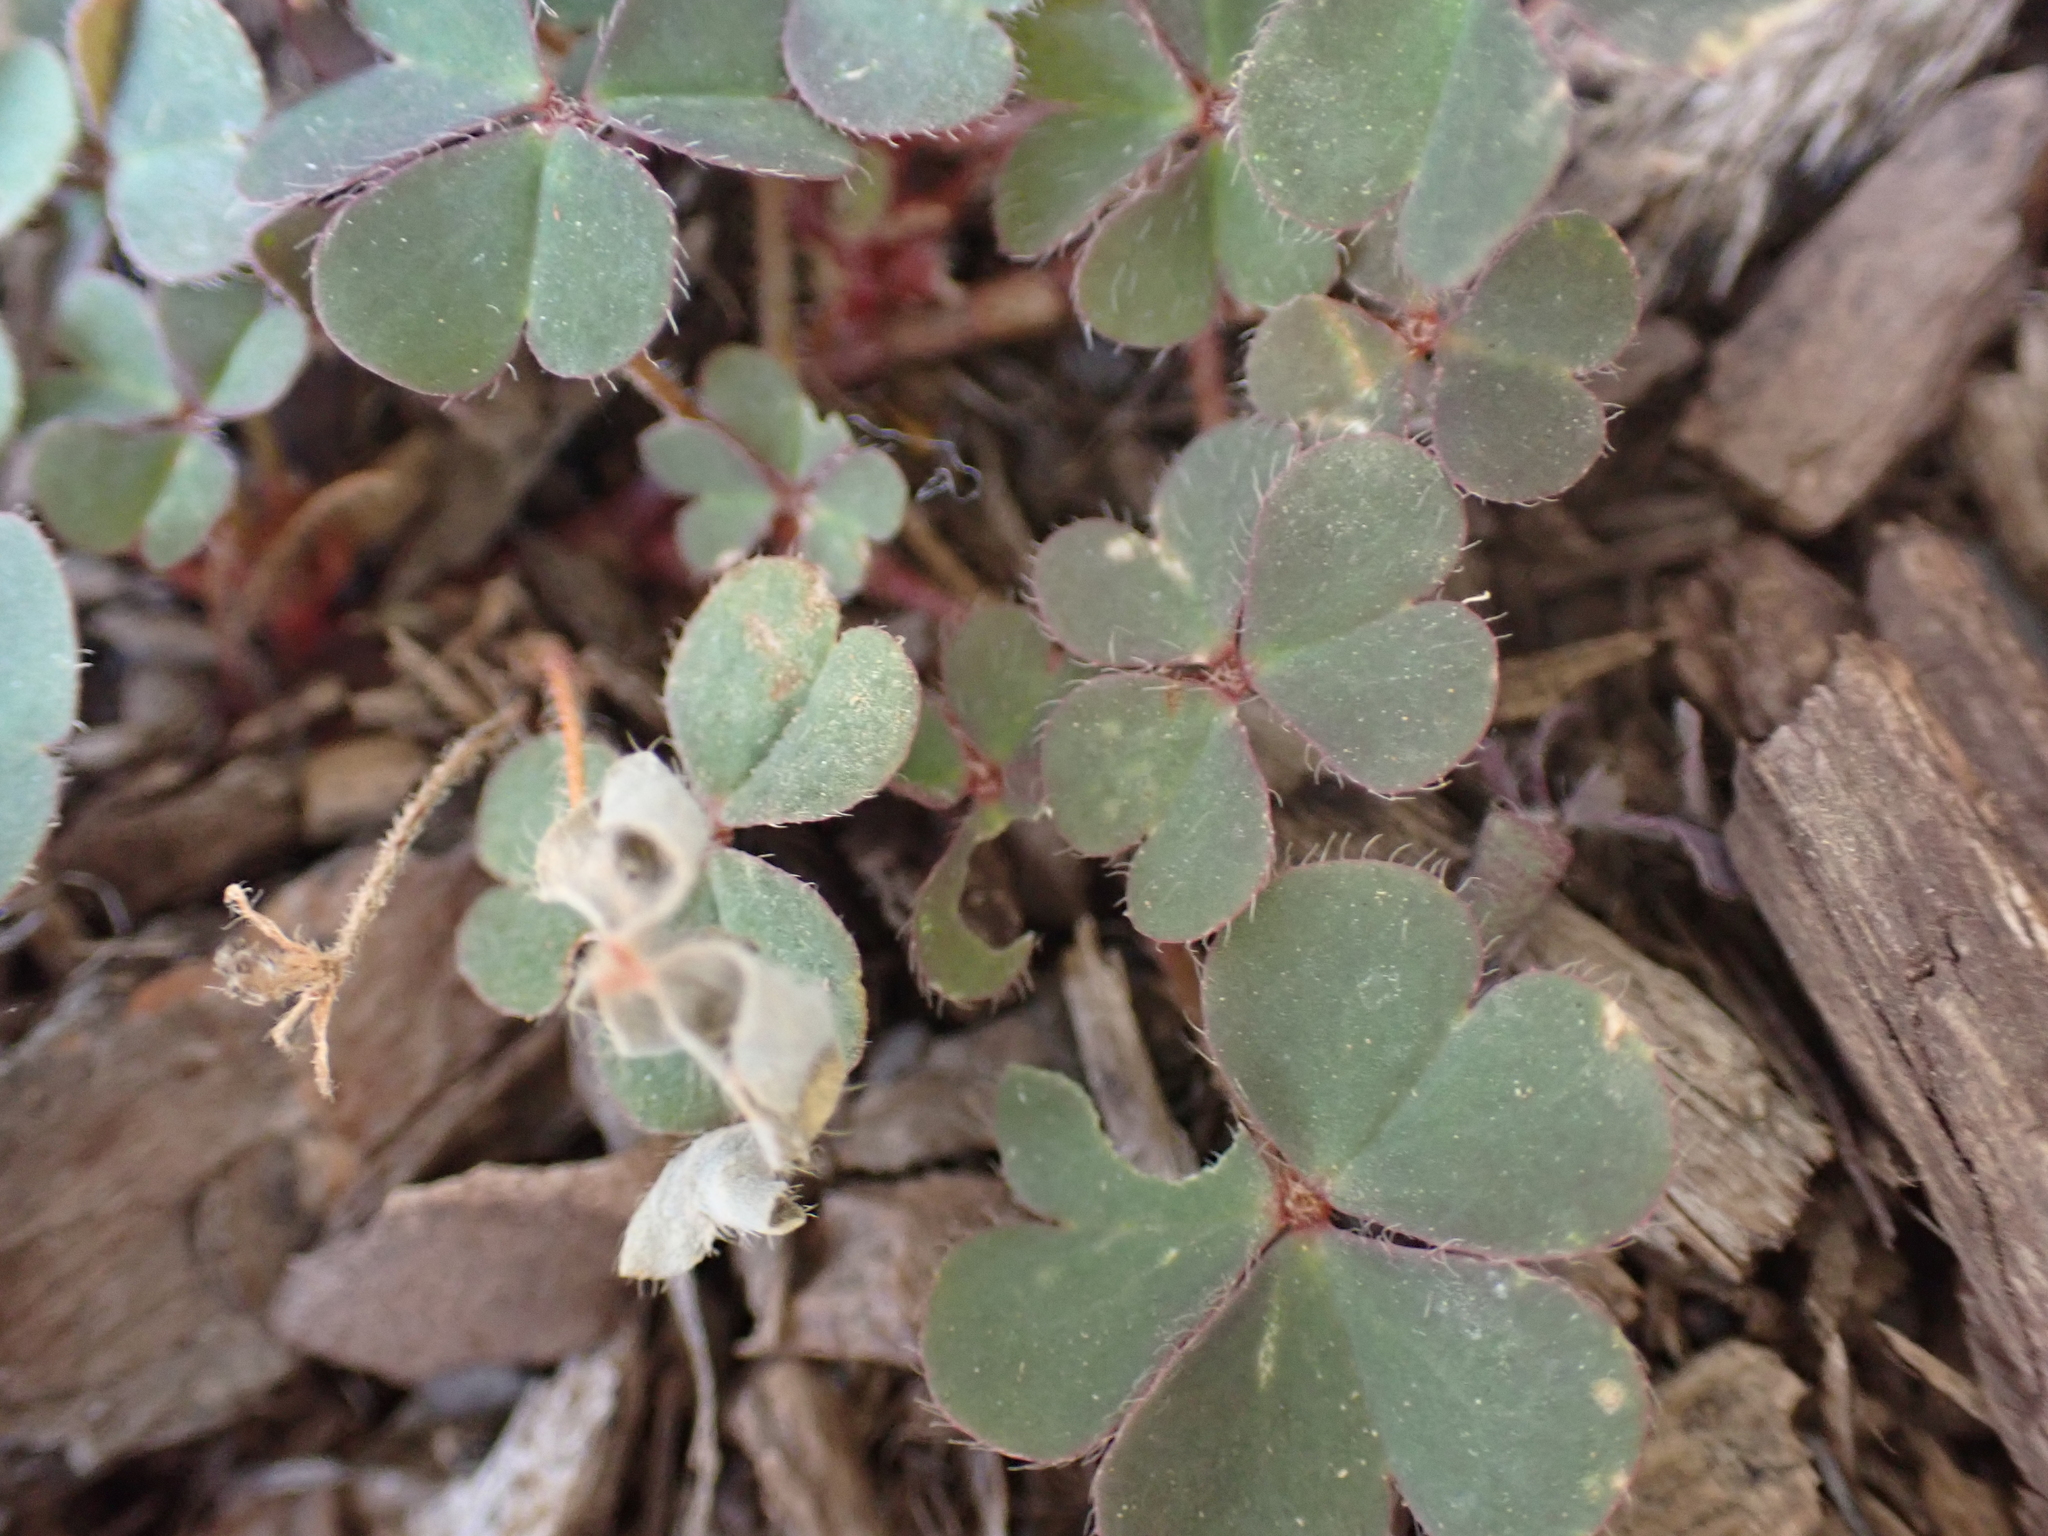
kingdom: Plantae
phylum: Tracheophyta
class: Magnoliopsida
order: Oxalidales
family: Oxalidaceae
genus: Oxalis
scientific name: Oxalis corniculata
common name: Procumbent yellow-sorrel
